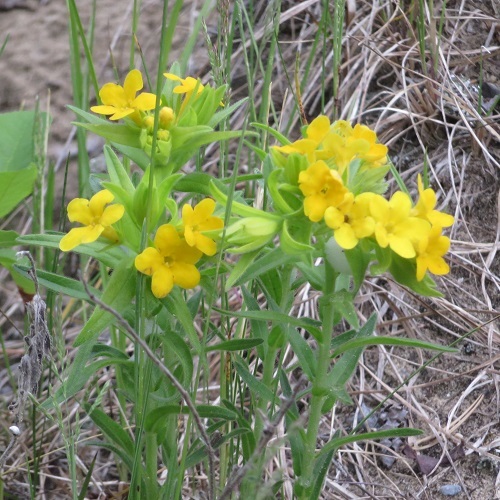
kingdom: Plantae
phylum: Tracheophyta
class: Magnoliopsida
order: Boraginales
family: Boraginaceae
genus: Lithospermum
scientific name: Lithospermum caroliniense
